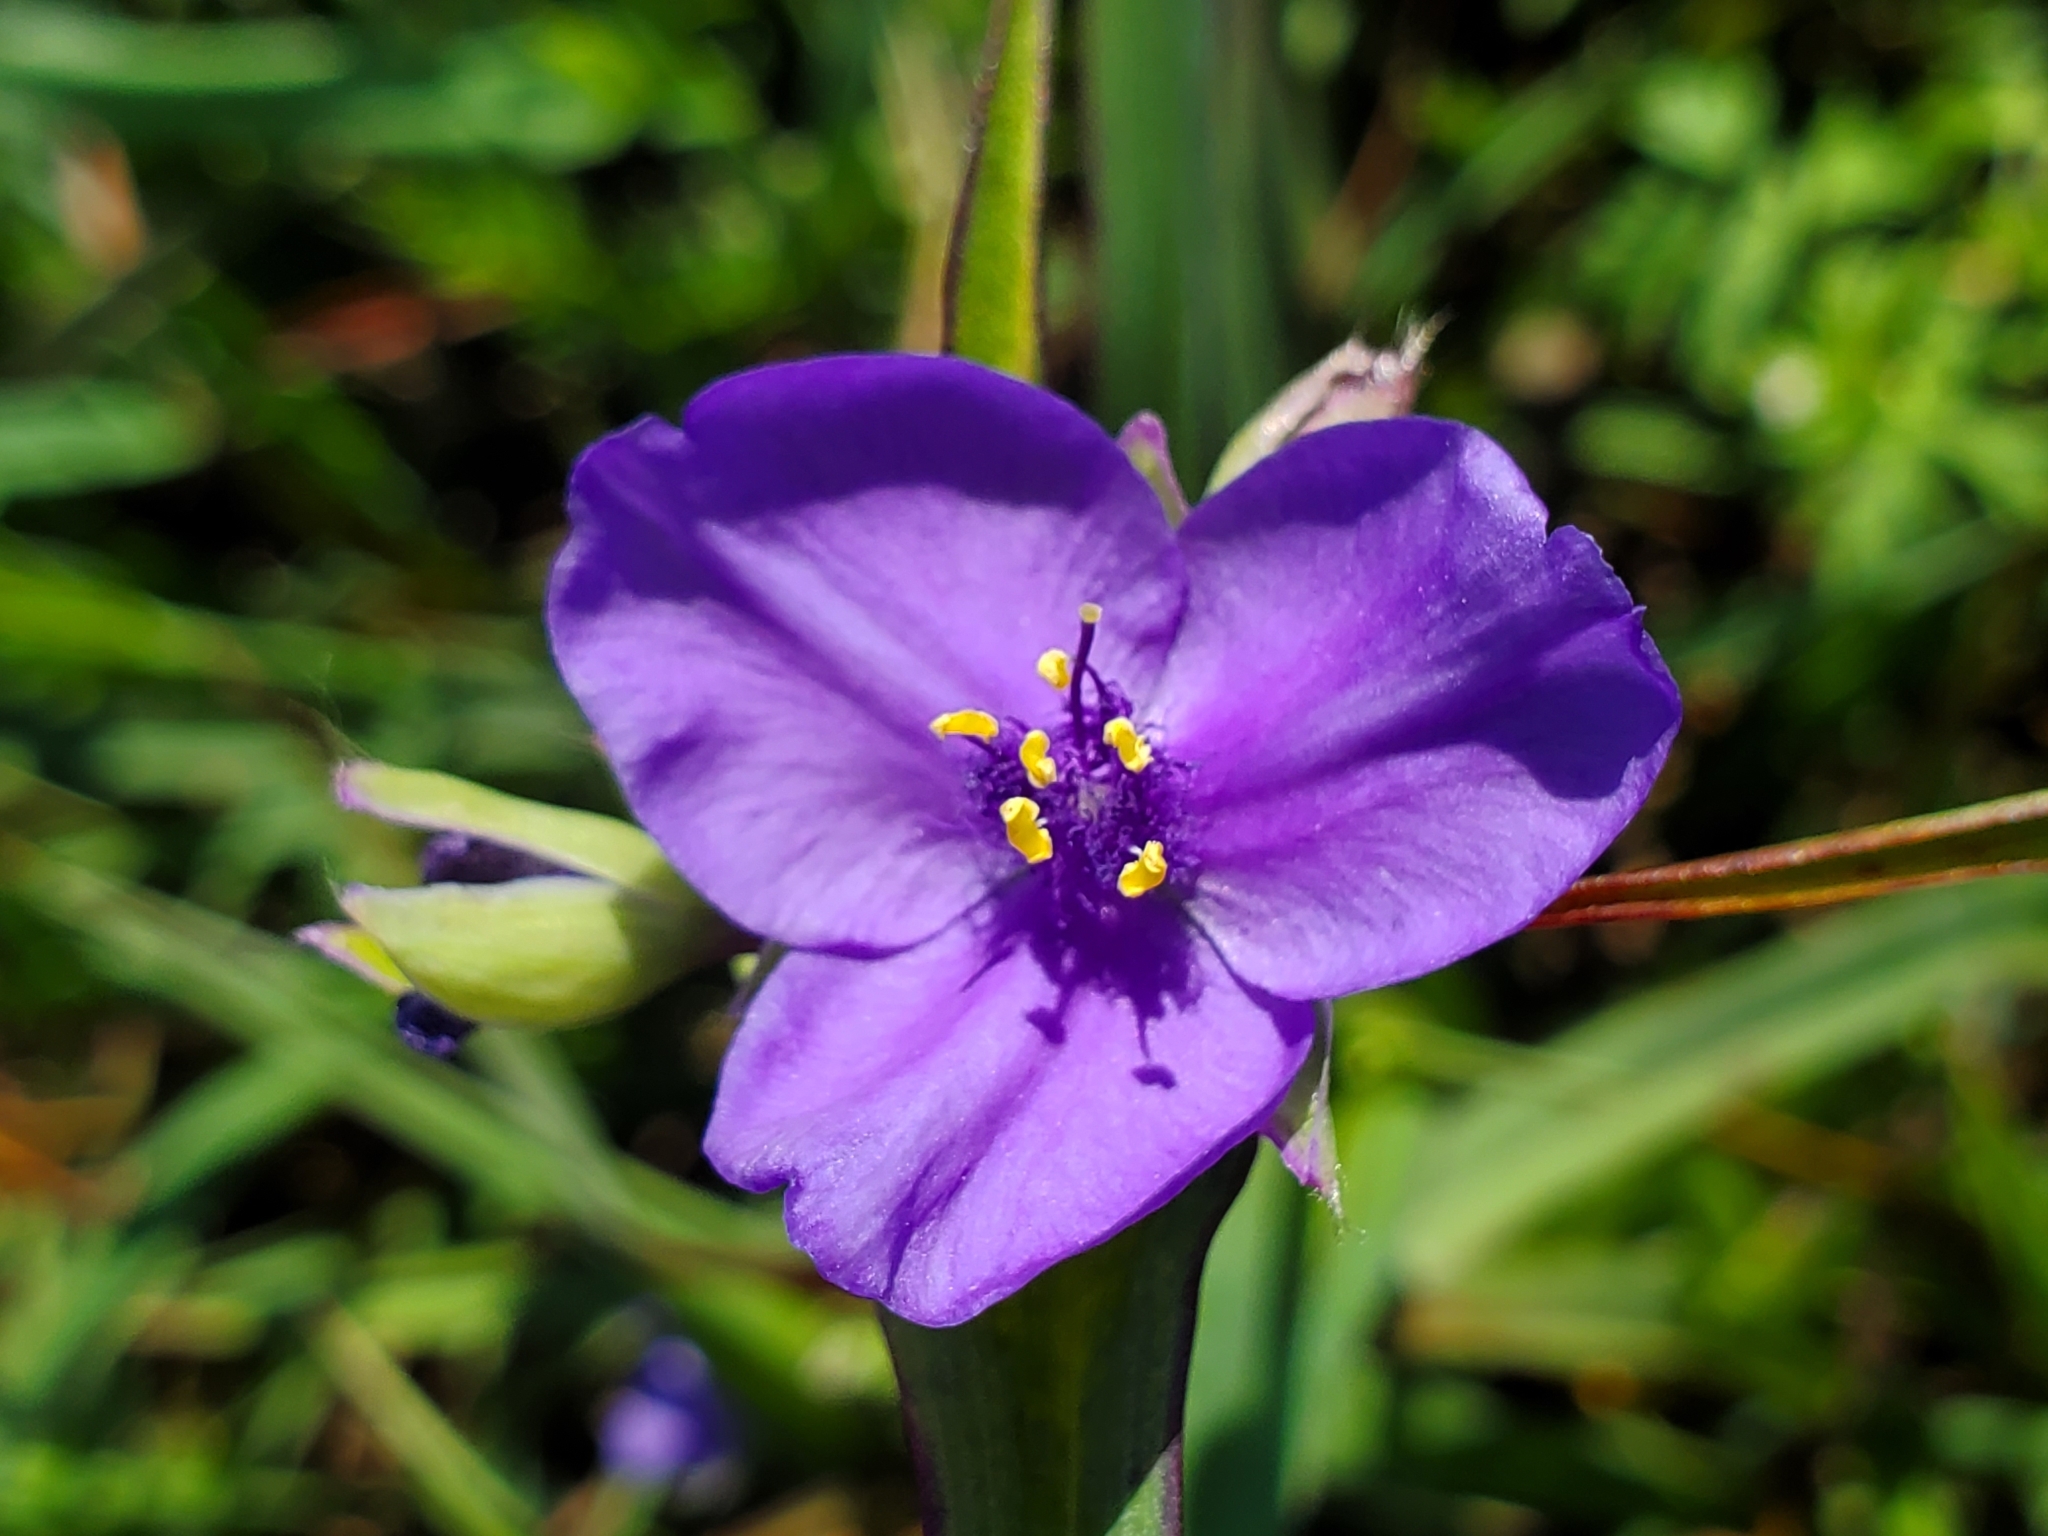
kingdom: Plantae
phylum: Tracheophyta
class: Liliopsida
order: Commelinales
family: Commelinaceae
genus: Tradescantia
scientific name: Tradescantia ohiensis
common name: Ohio spiderwort
